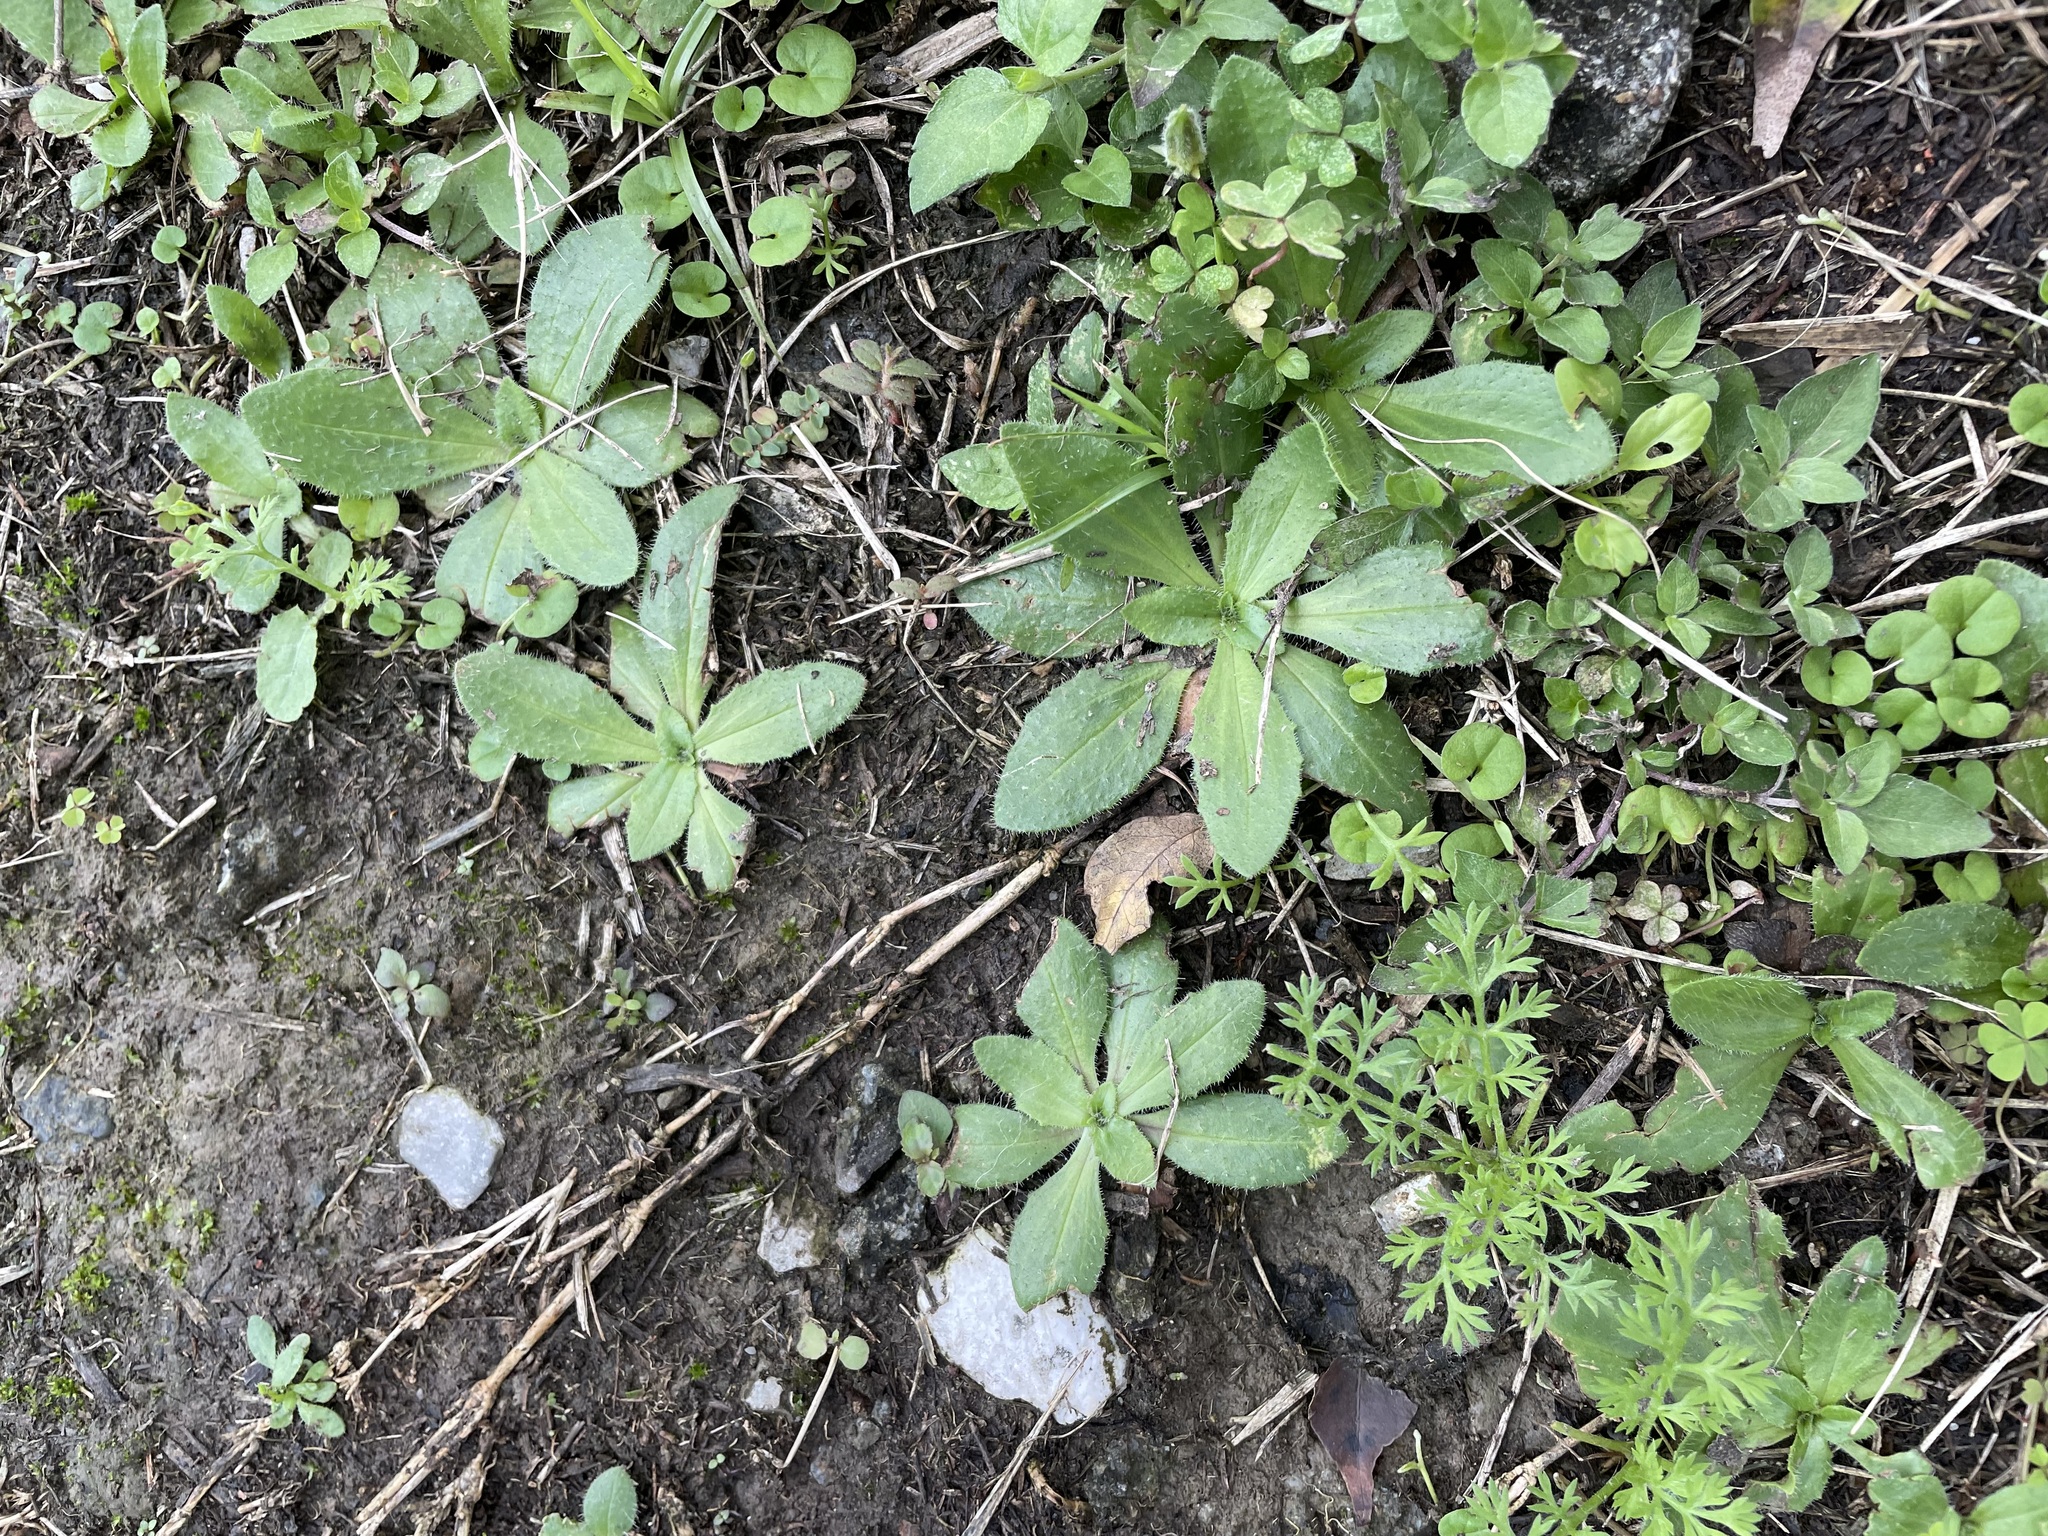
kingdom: Plantae
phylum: Tracheophyta
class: Magnoliopsida
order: Lamiales
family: Plantaginaceae
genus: Plantago
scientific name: Plantago virginica
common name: Hoary plantain
